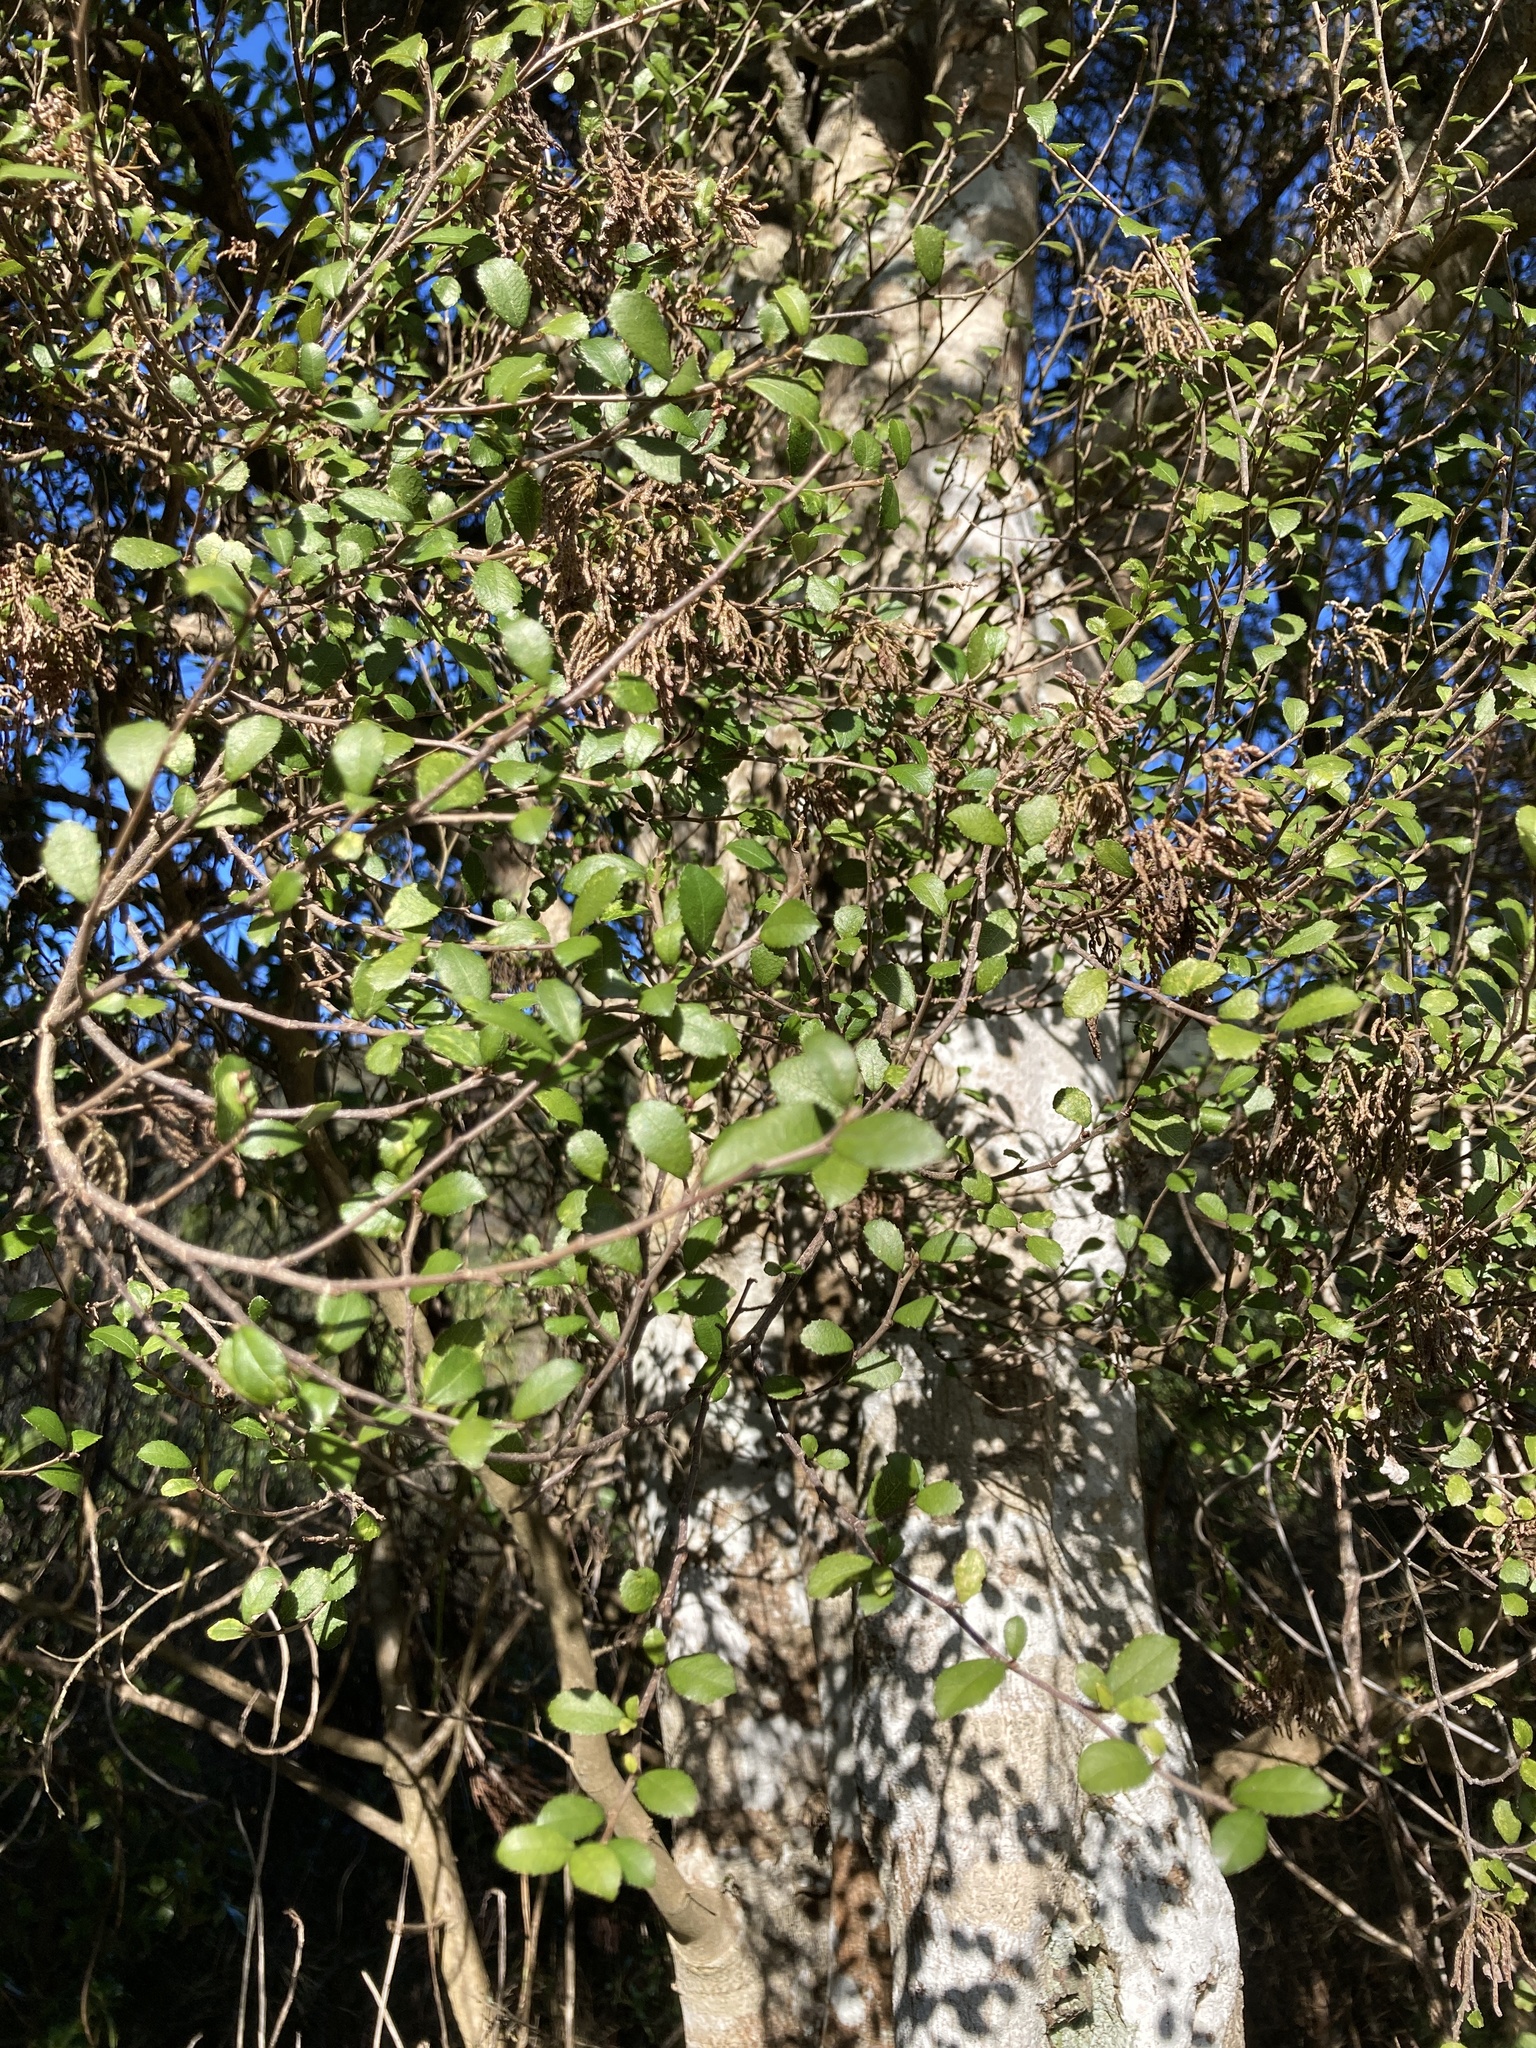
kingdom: Plantae
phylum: Tracheophyta
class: Magnoliopsida
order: Rosales
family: Moraceae
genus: Paratrophis
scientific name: Paratrophis microphylla
